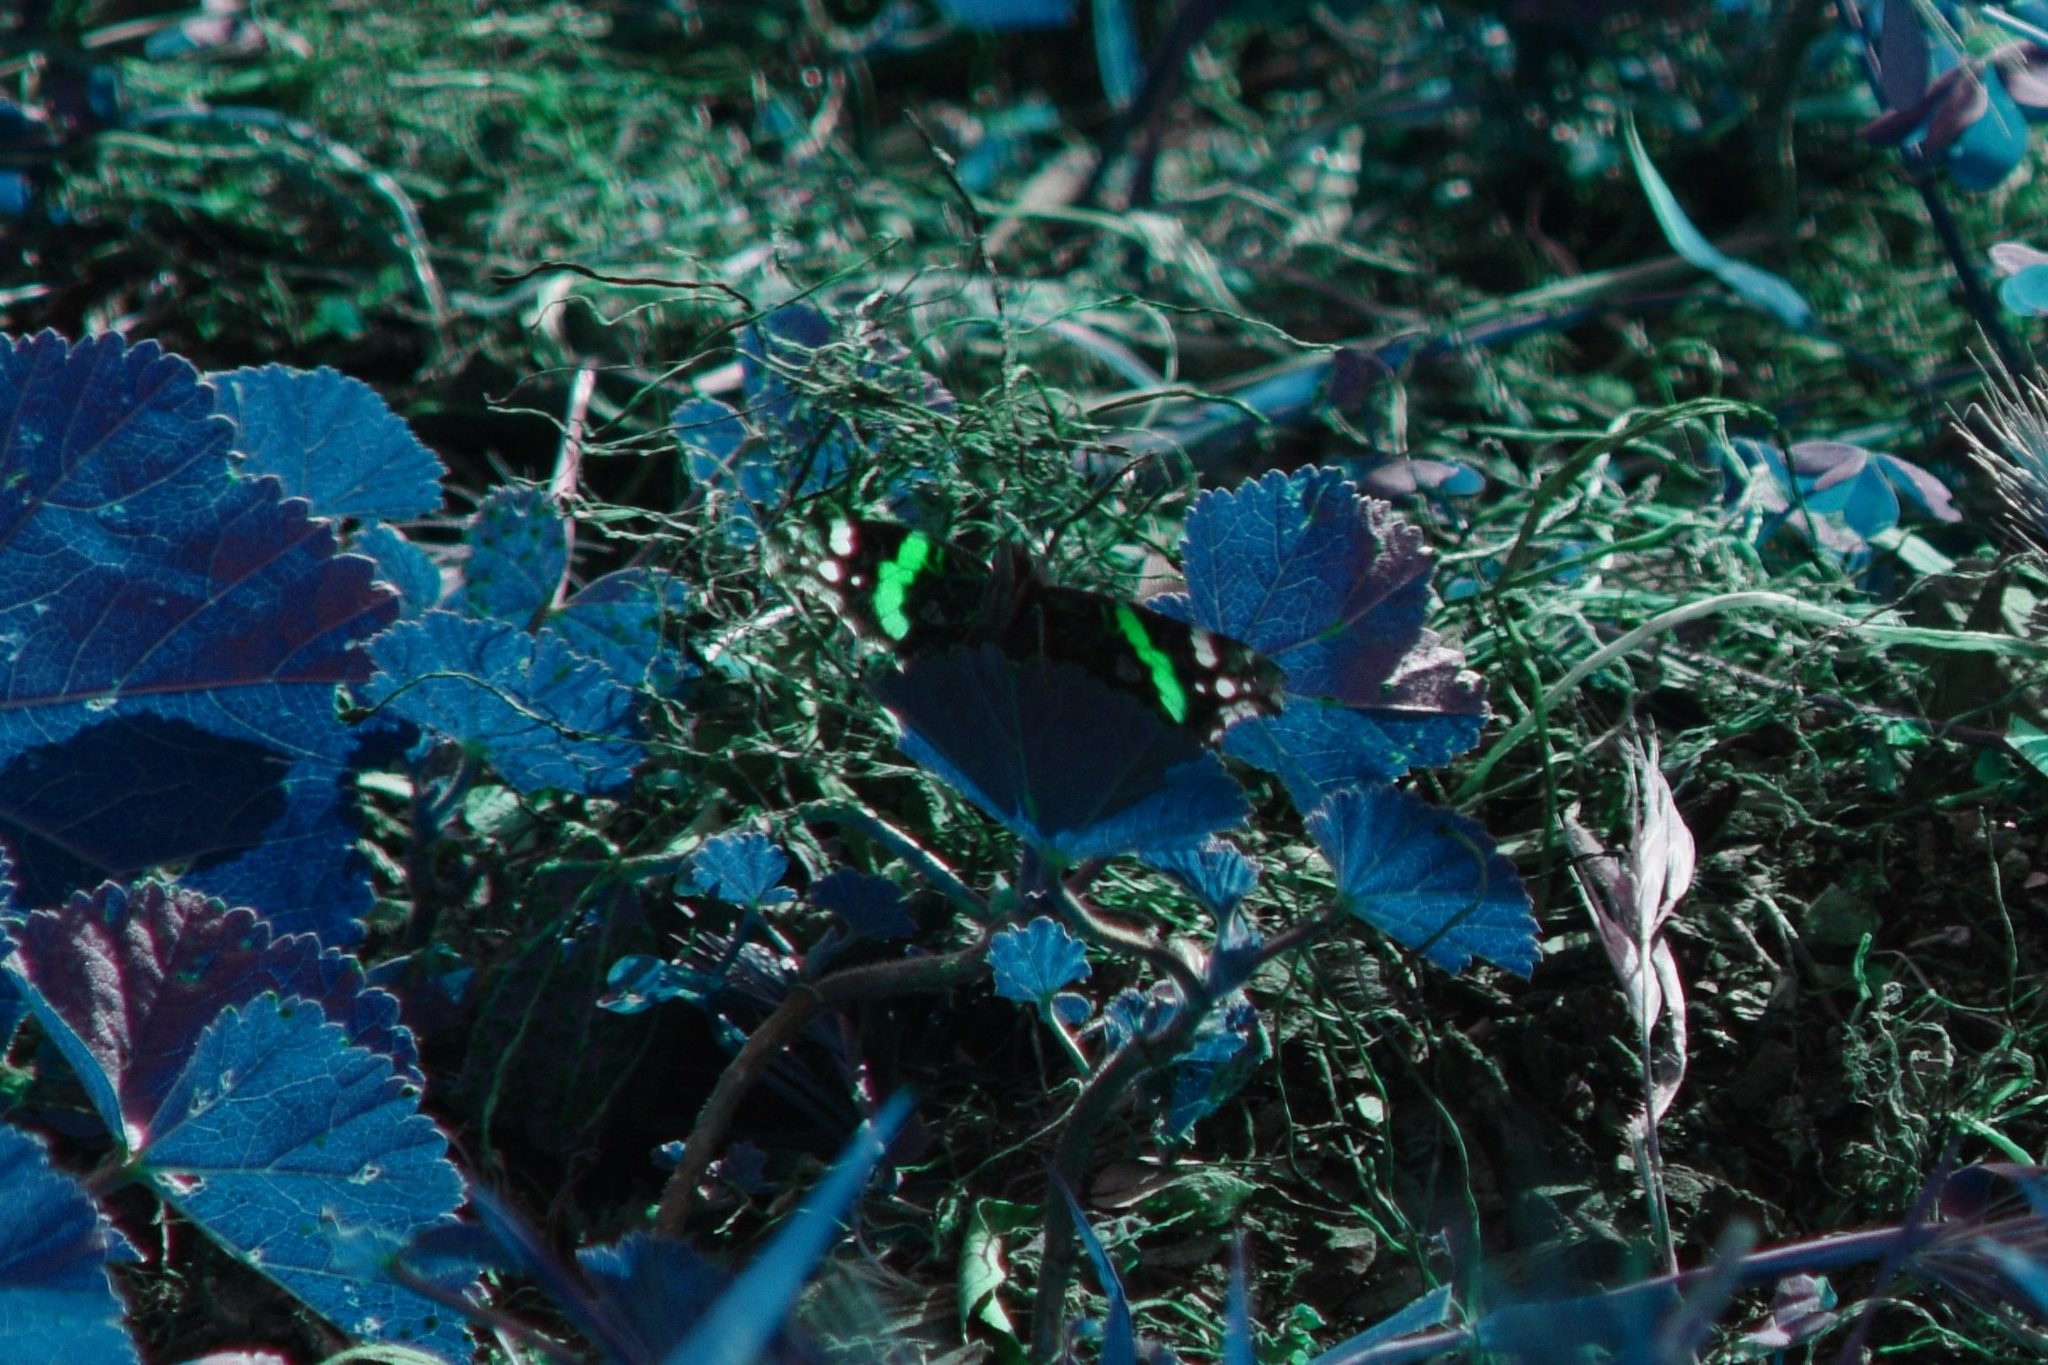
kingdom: Animalia
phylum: Arthropoda
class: Insecta
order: Lepidoptera
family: Nymphalidae
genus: Vanessa
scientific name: Vanessa atalanta
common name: Red admiral
